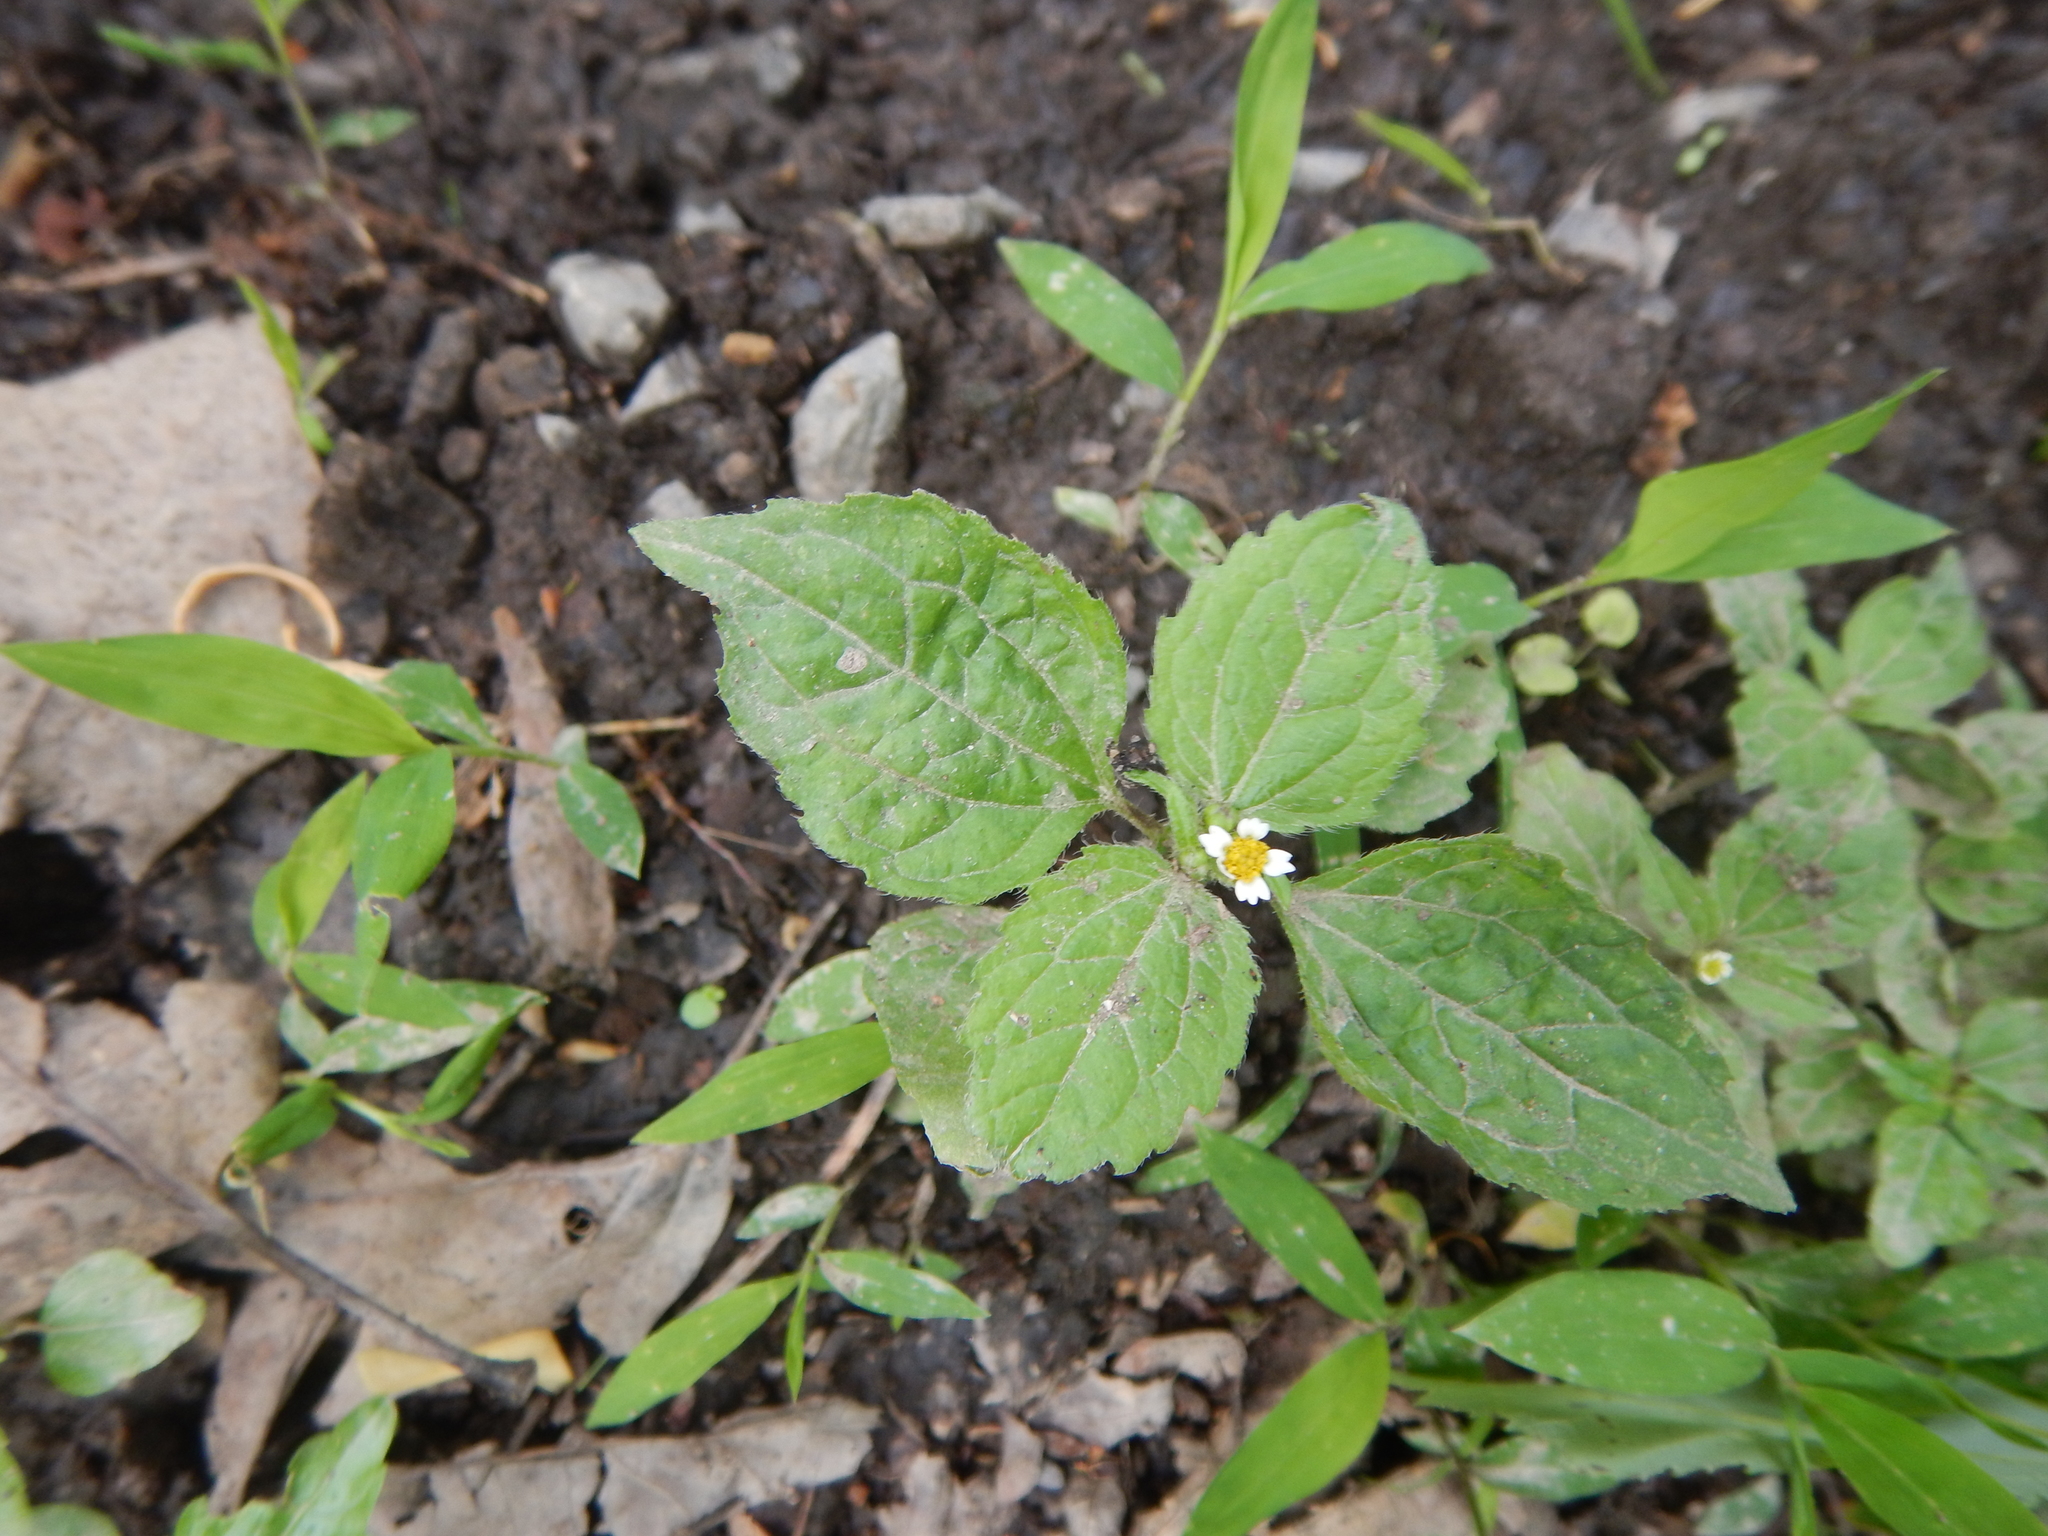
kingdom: Plantae
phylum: Tracheophyta
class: Magnoliopsida
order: Asterales
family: Asteraceae
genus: Galinsoga
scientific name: Galinsoga quadriradiata
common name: Shaggy soldier
